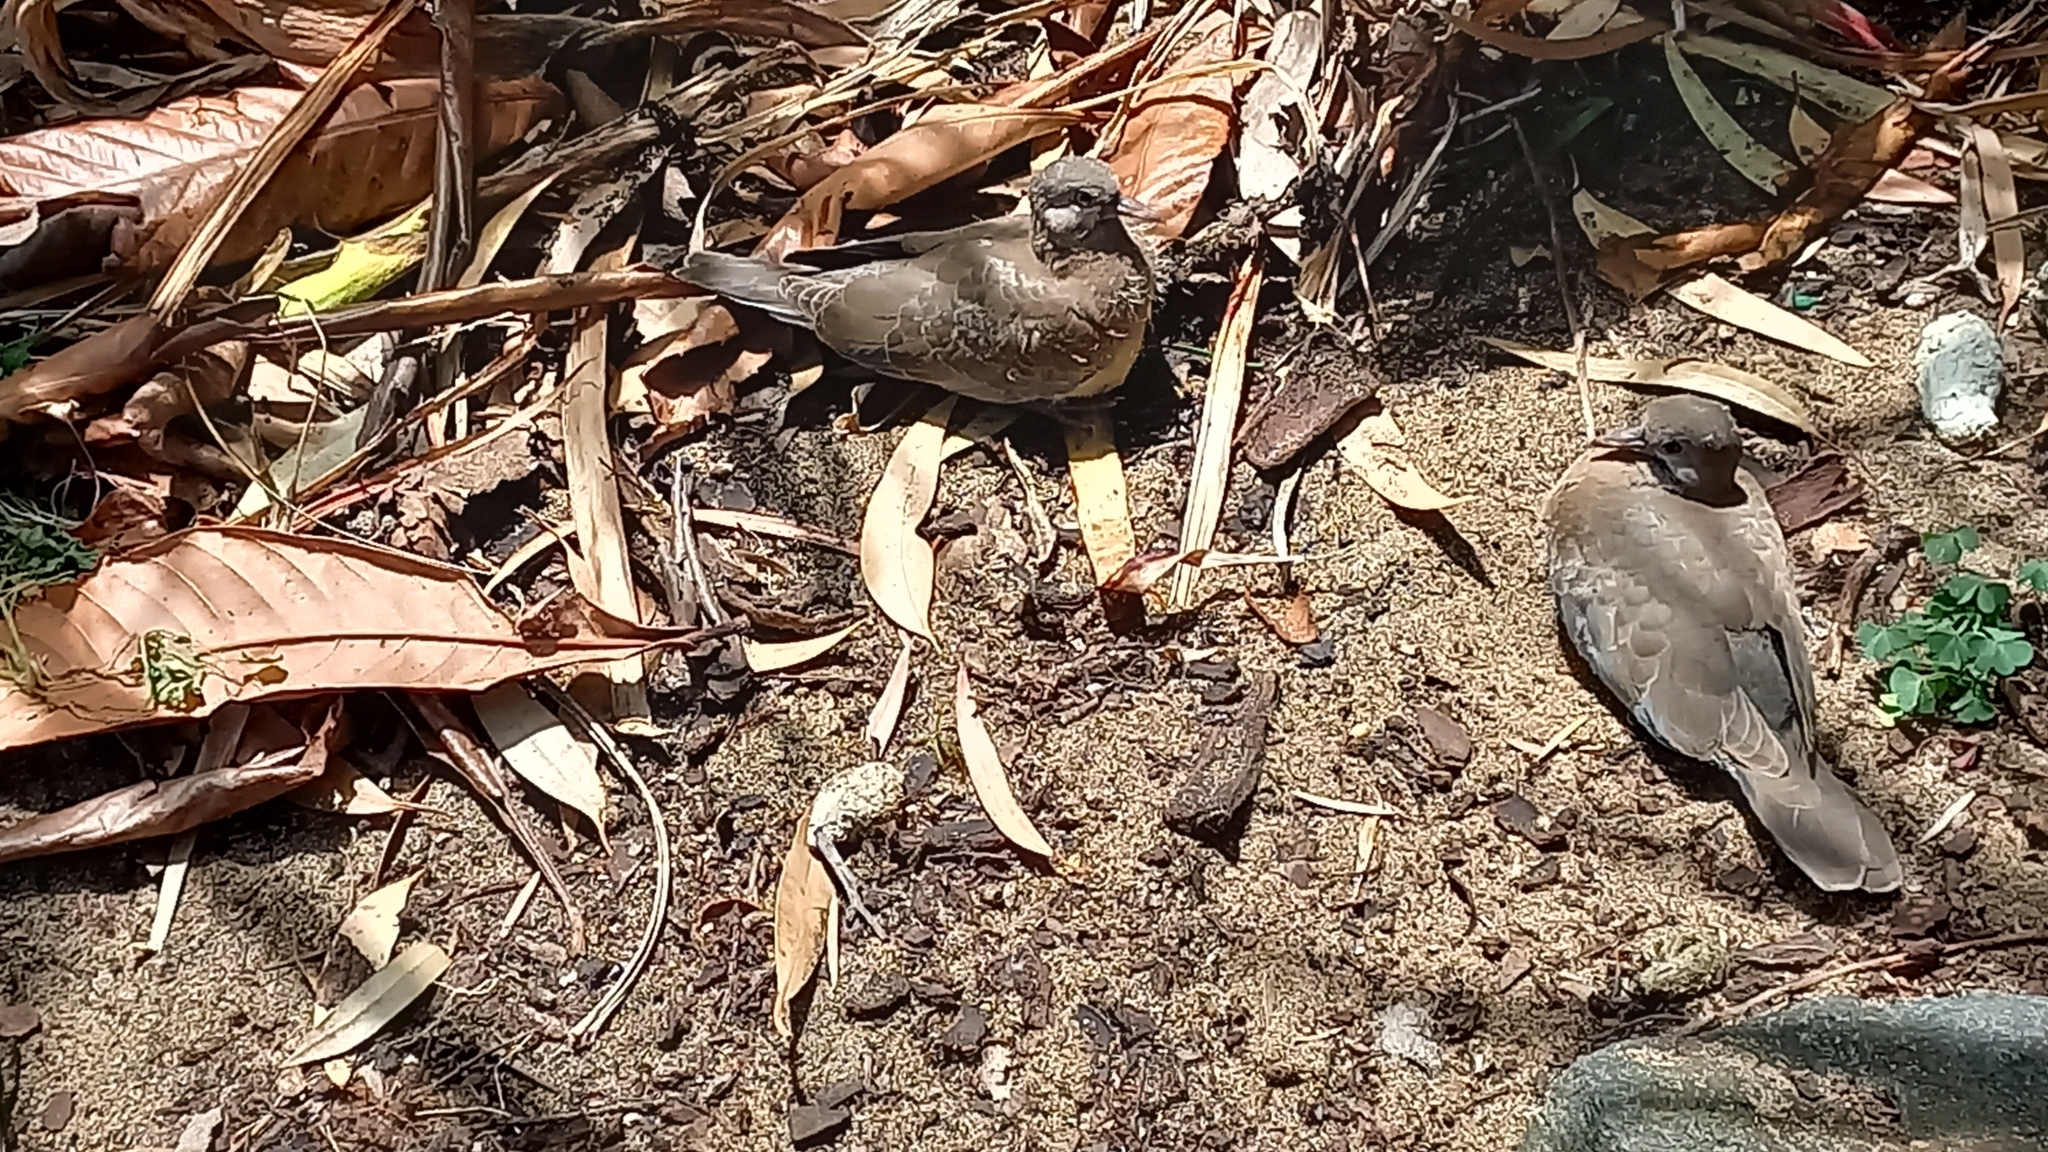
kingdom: Animalia
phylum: Chordata
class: Aves
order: Columbiformes
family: Columbidae
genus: Spilopelia
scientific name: Spilopelia chinensis
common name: Spotted dove
